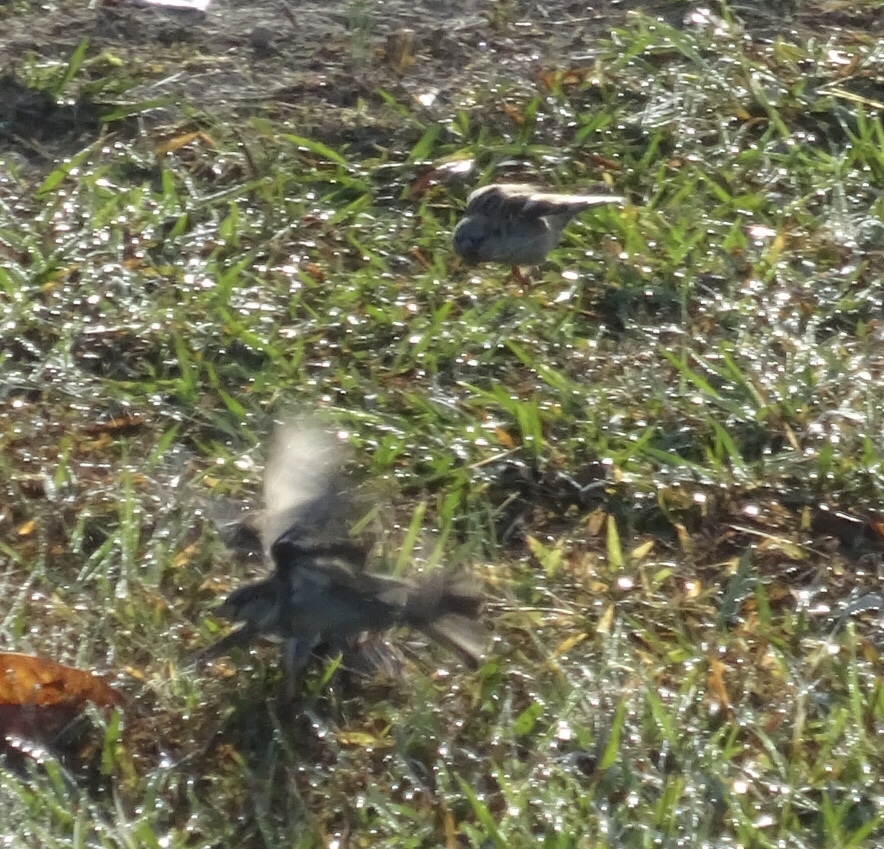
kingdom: Animalia
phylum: Chordata
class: Aves
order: Passeriformes
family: Passeridae
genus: Passer
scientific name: Passer domesticus
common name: House sparrow
